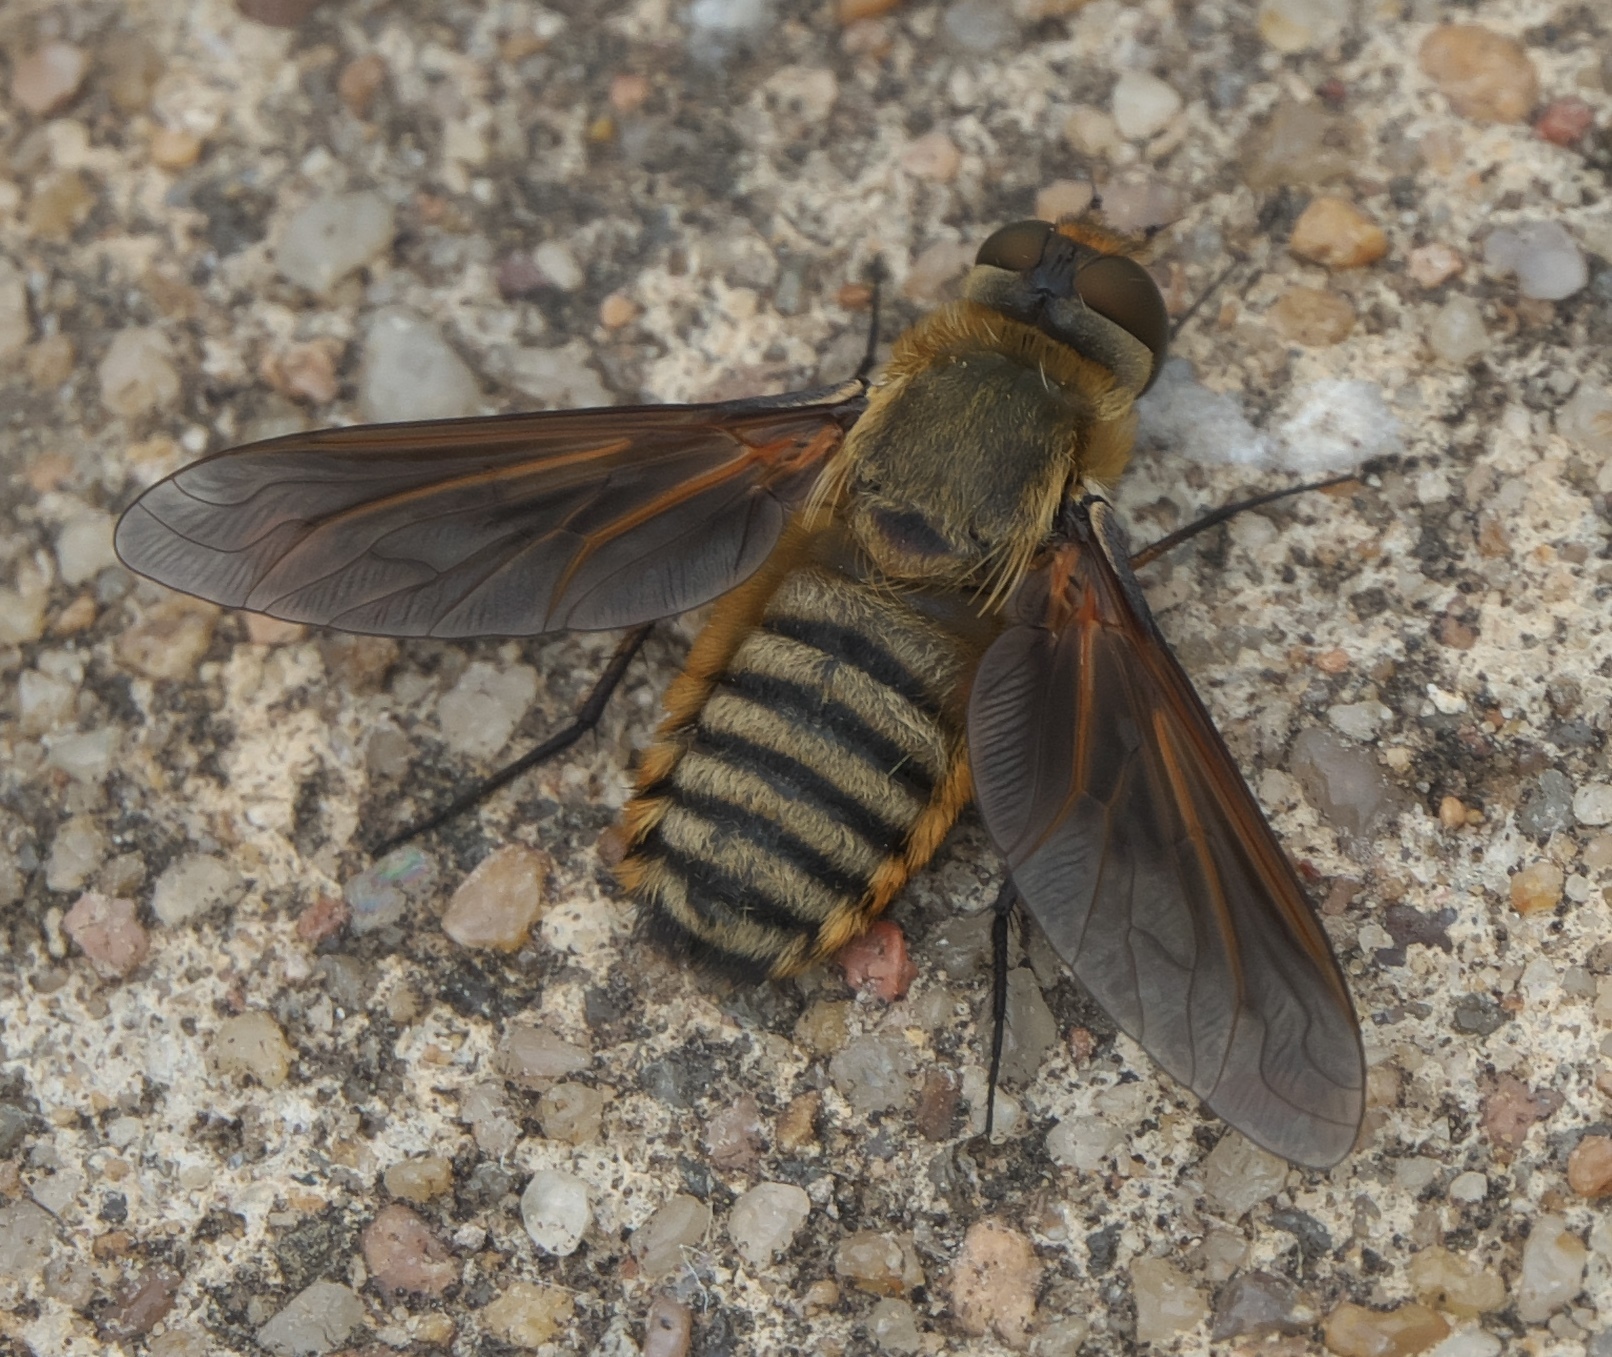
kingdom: Animalia
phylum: Arthropoda
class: Insecta
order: Diptera
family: Bombyliidae
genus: Poecilanthrax
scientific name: Poecilanthrax lucifer
